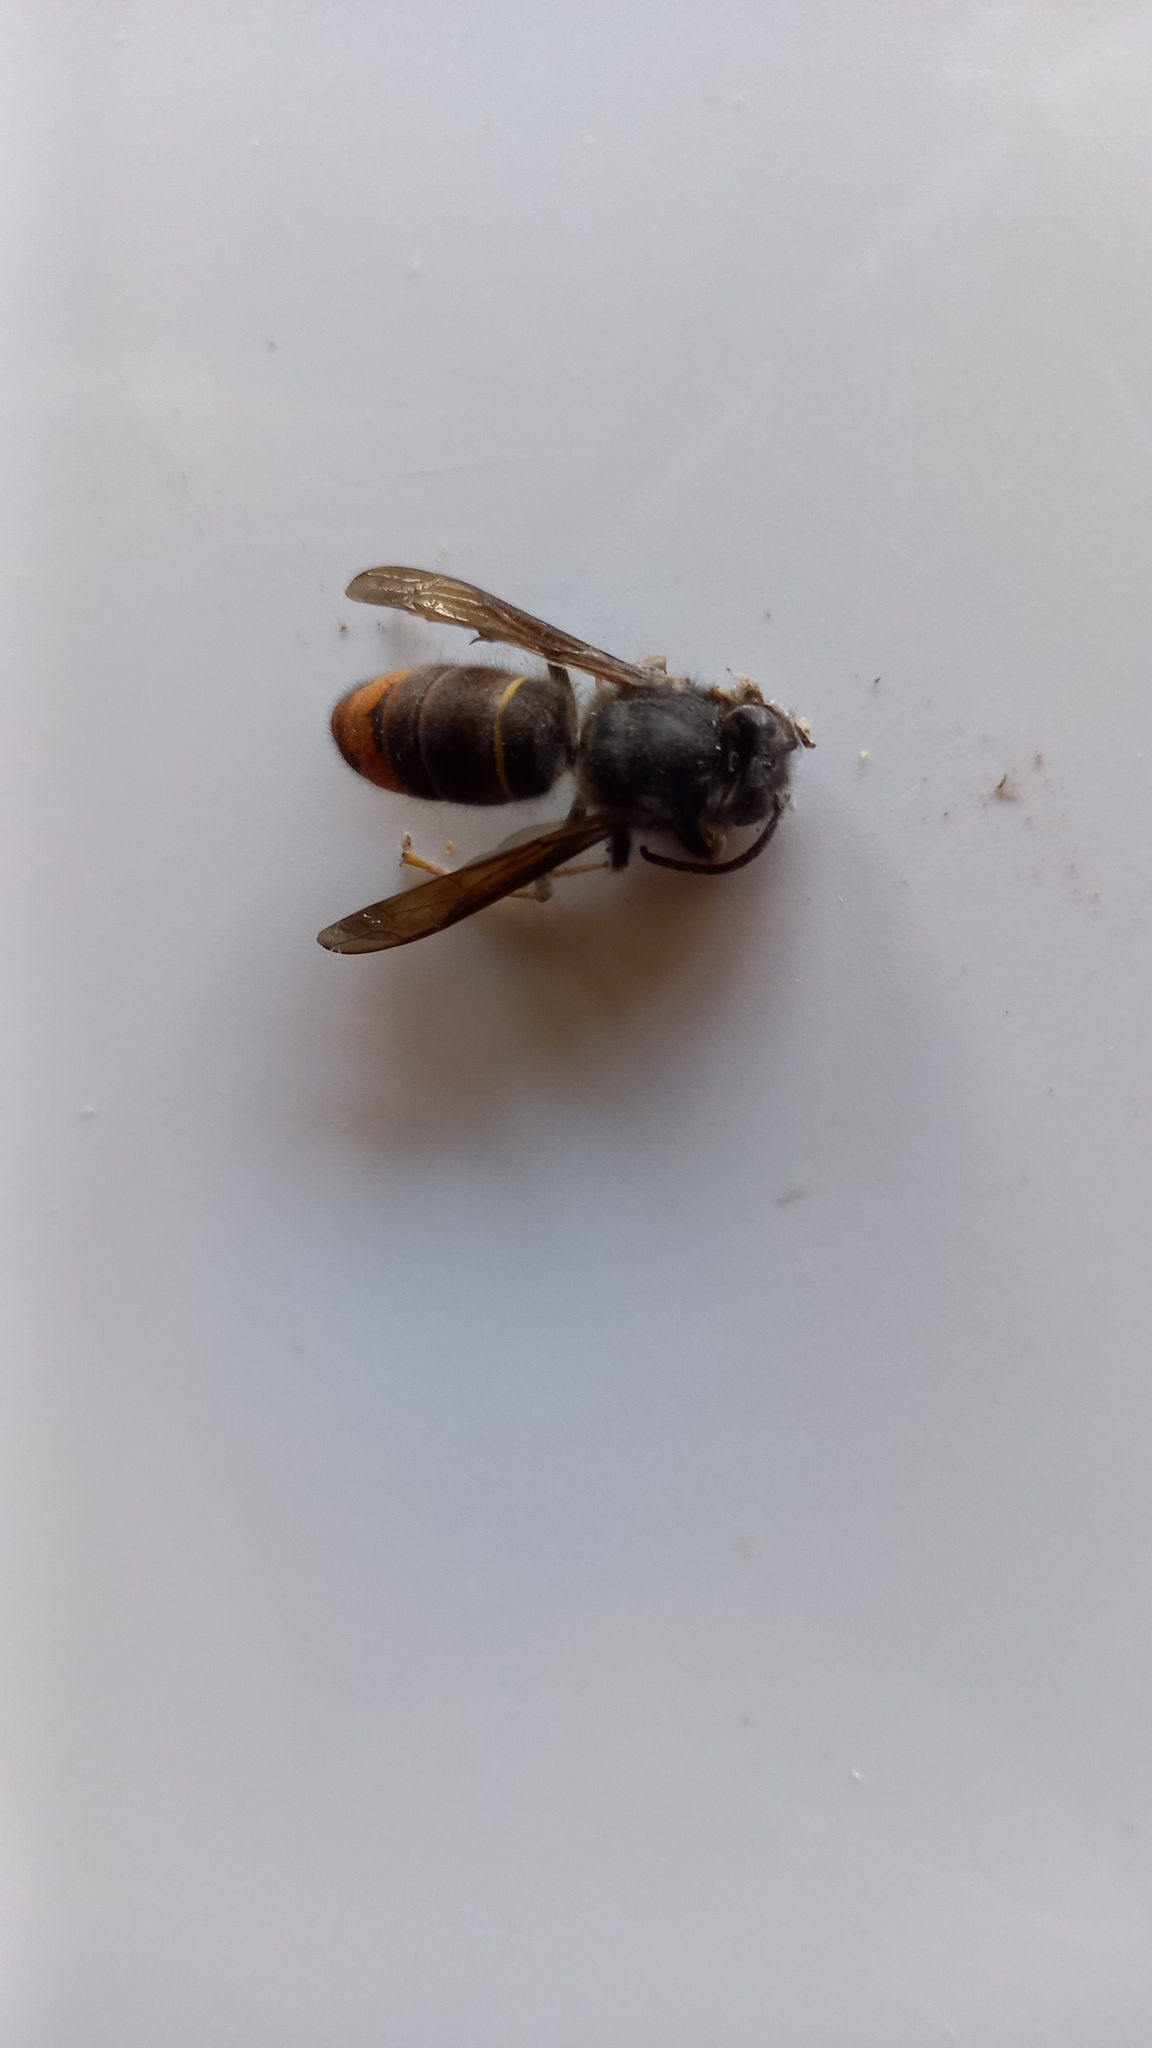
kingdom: Animalia
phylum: Arthropoda
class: Insecta
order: Hymenoptera
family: Vespidae
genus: Vespa
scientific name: Vespa velutina
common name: Asian hornet
